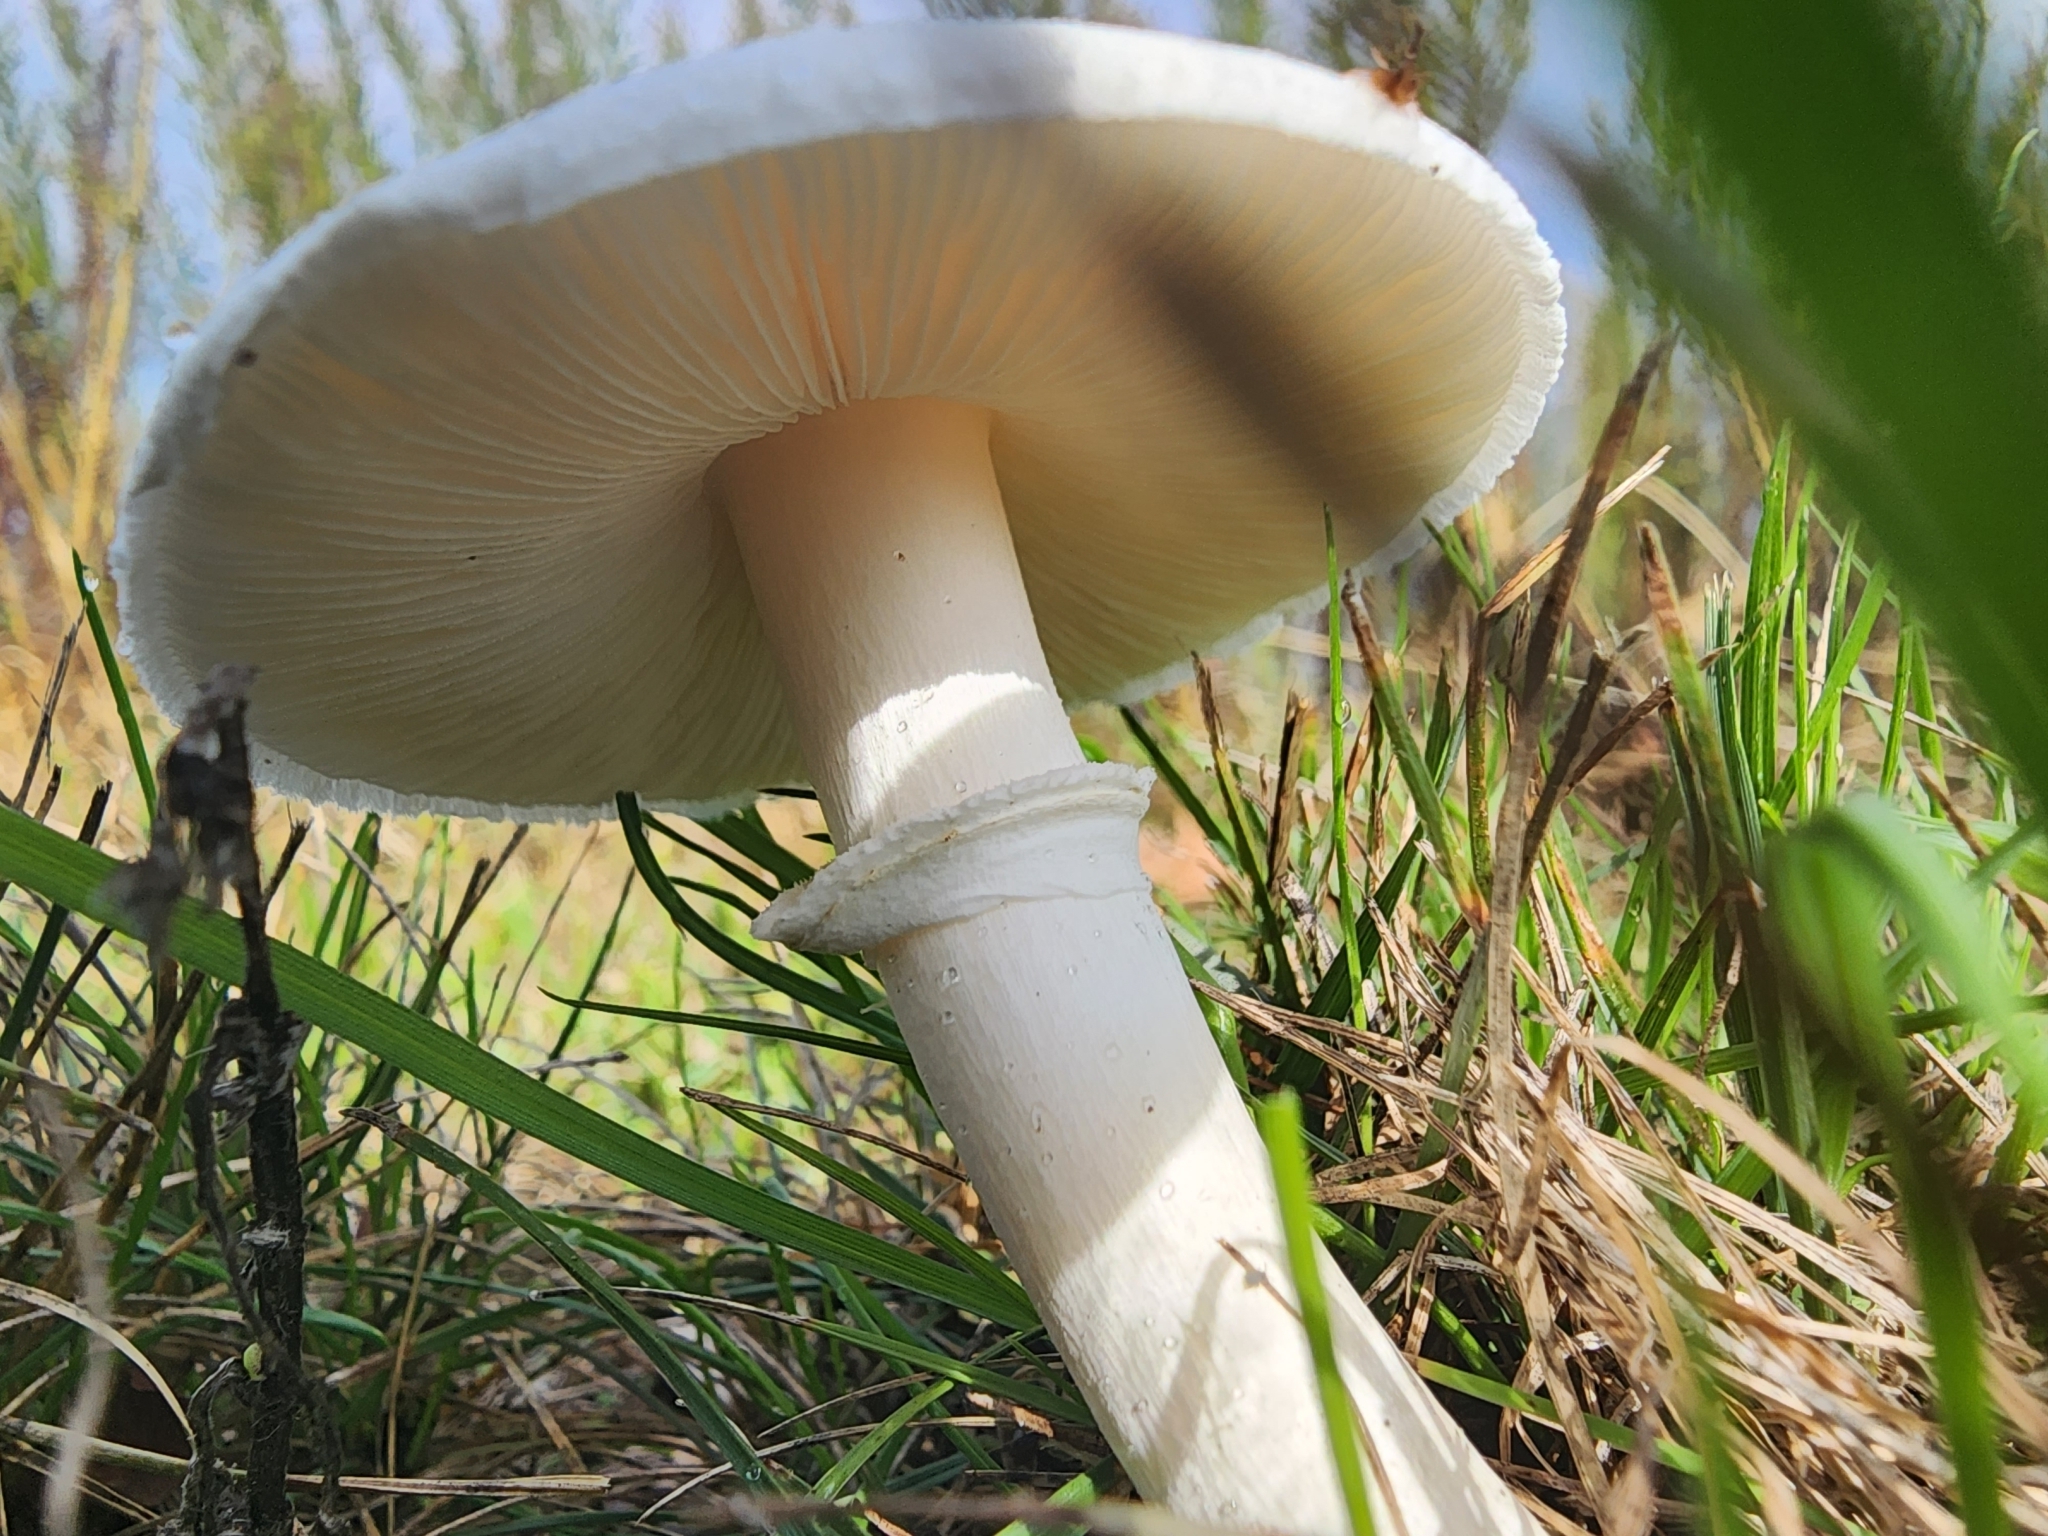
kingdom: Fungi
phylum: Basidiomycota
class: Agaricomycetes
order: Agaricales
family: Agaricaceae
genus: Leucoagaricus
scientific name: Leucoagaricus leucothites
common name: White dapperling
